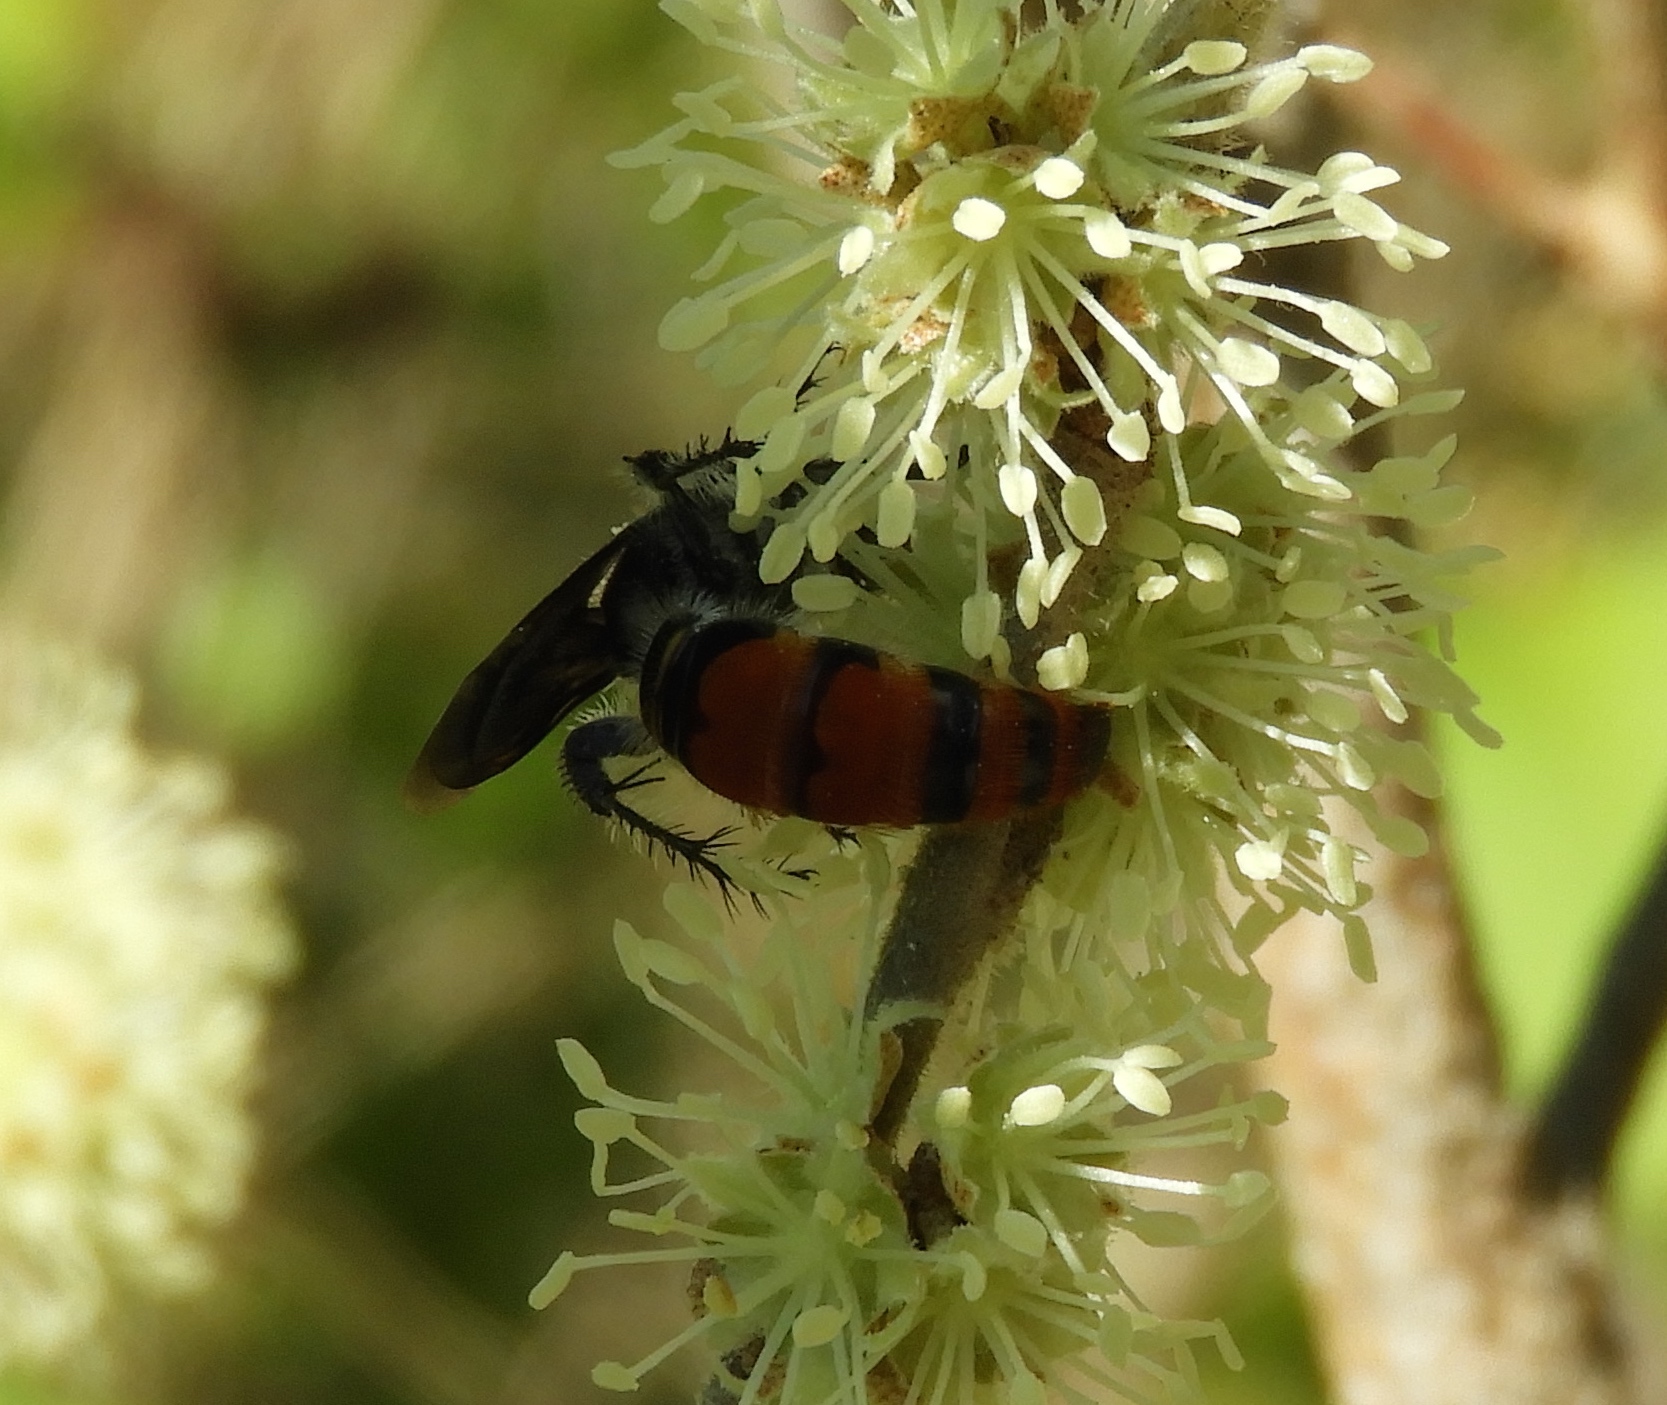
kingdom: Animalia
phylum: Arthropoda
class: Insecta
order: Hymenoptera
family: Scoliidae
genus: Dielis
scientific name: Dielis tolteca
